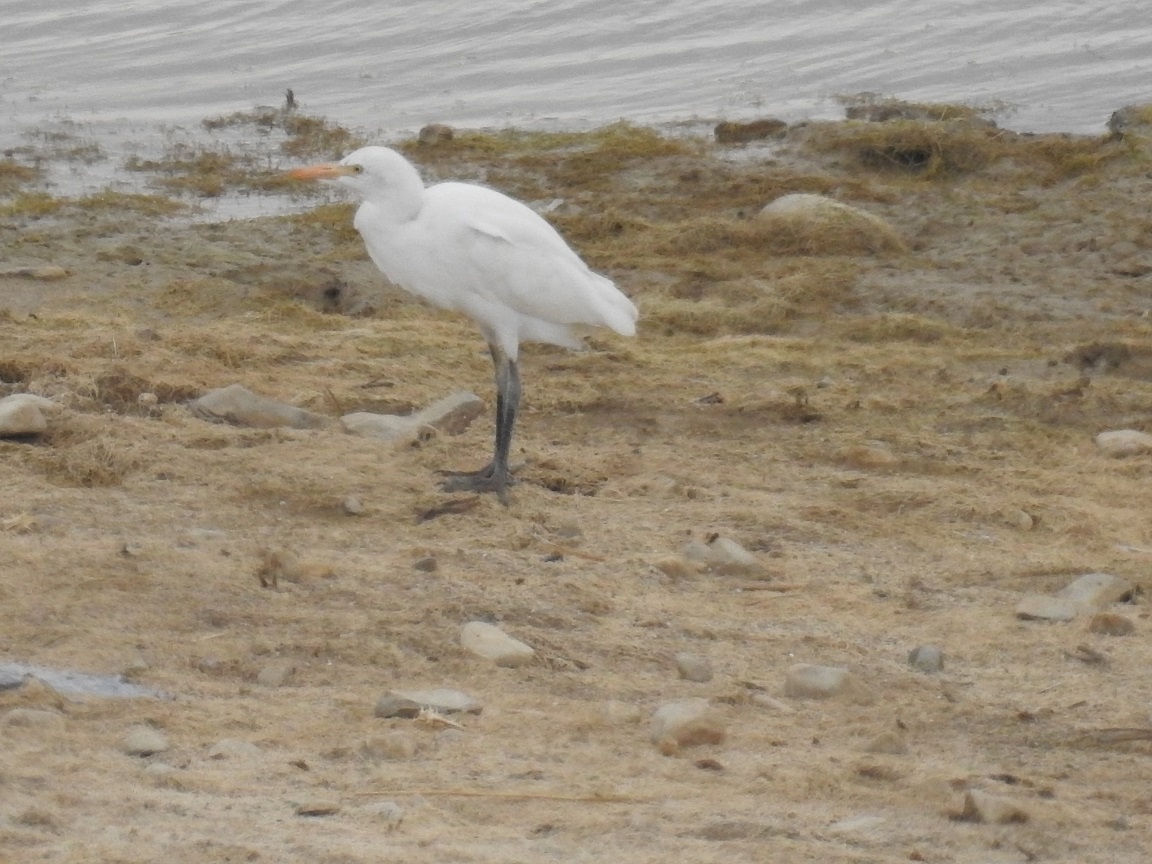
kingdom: Animalia
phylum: Chordata
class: Aves
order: Pelecaniformes
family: Ardeidae
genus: Bubulcus
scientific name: Bubulcus ibis
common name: Cattle egret
